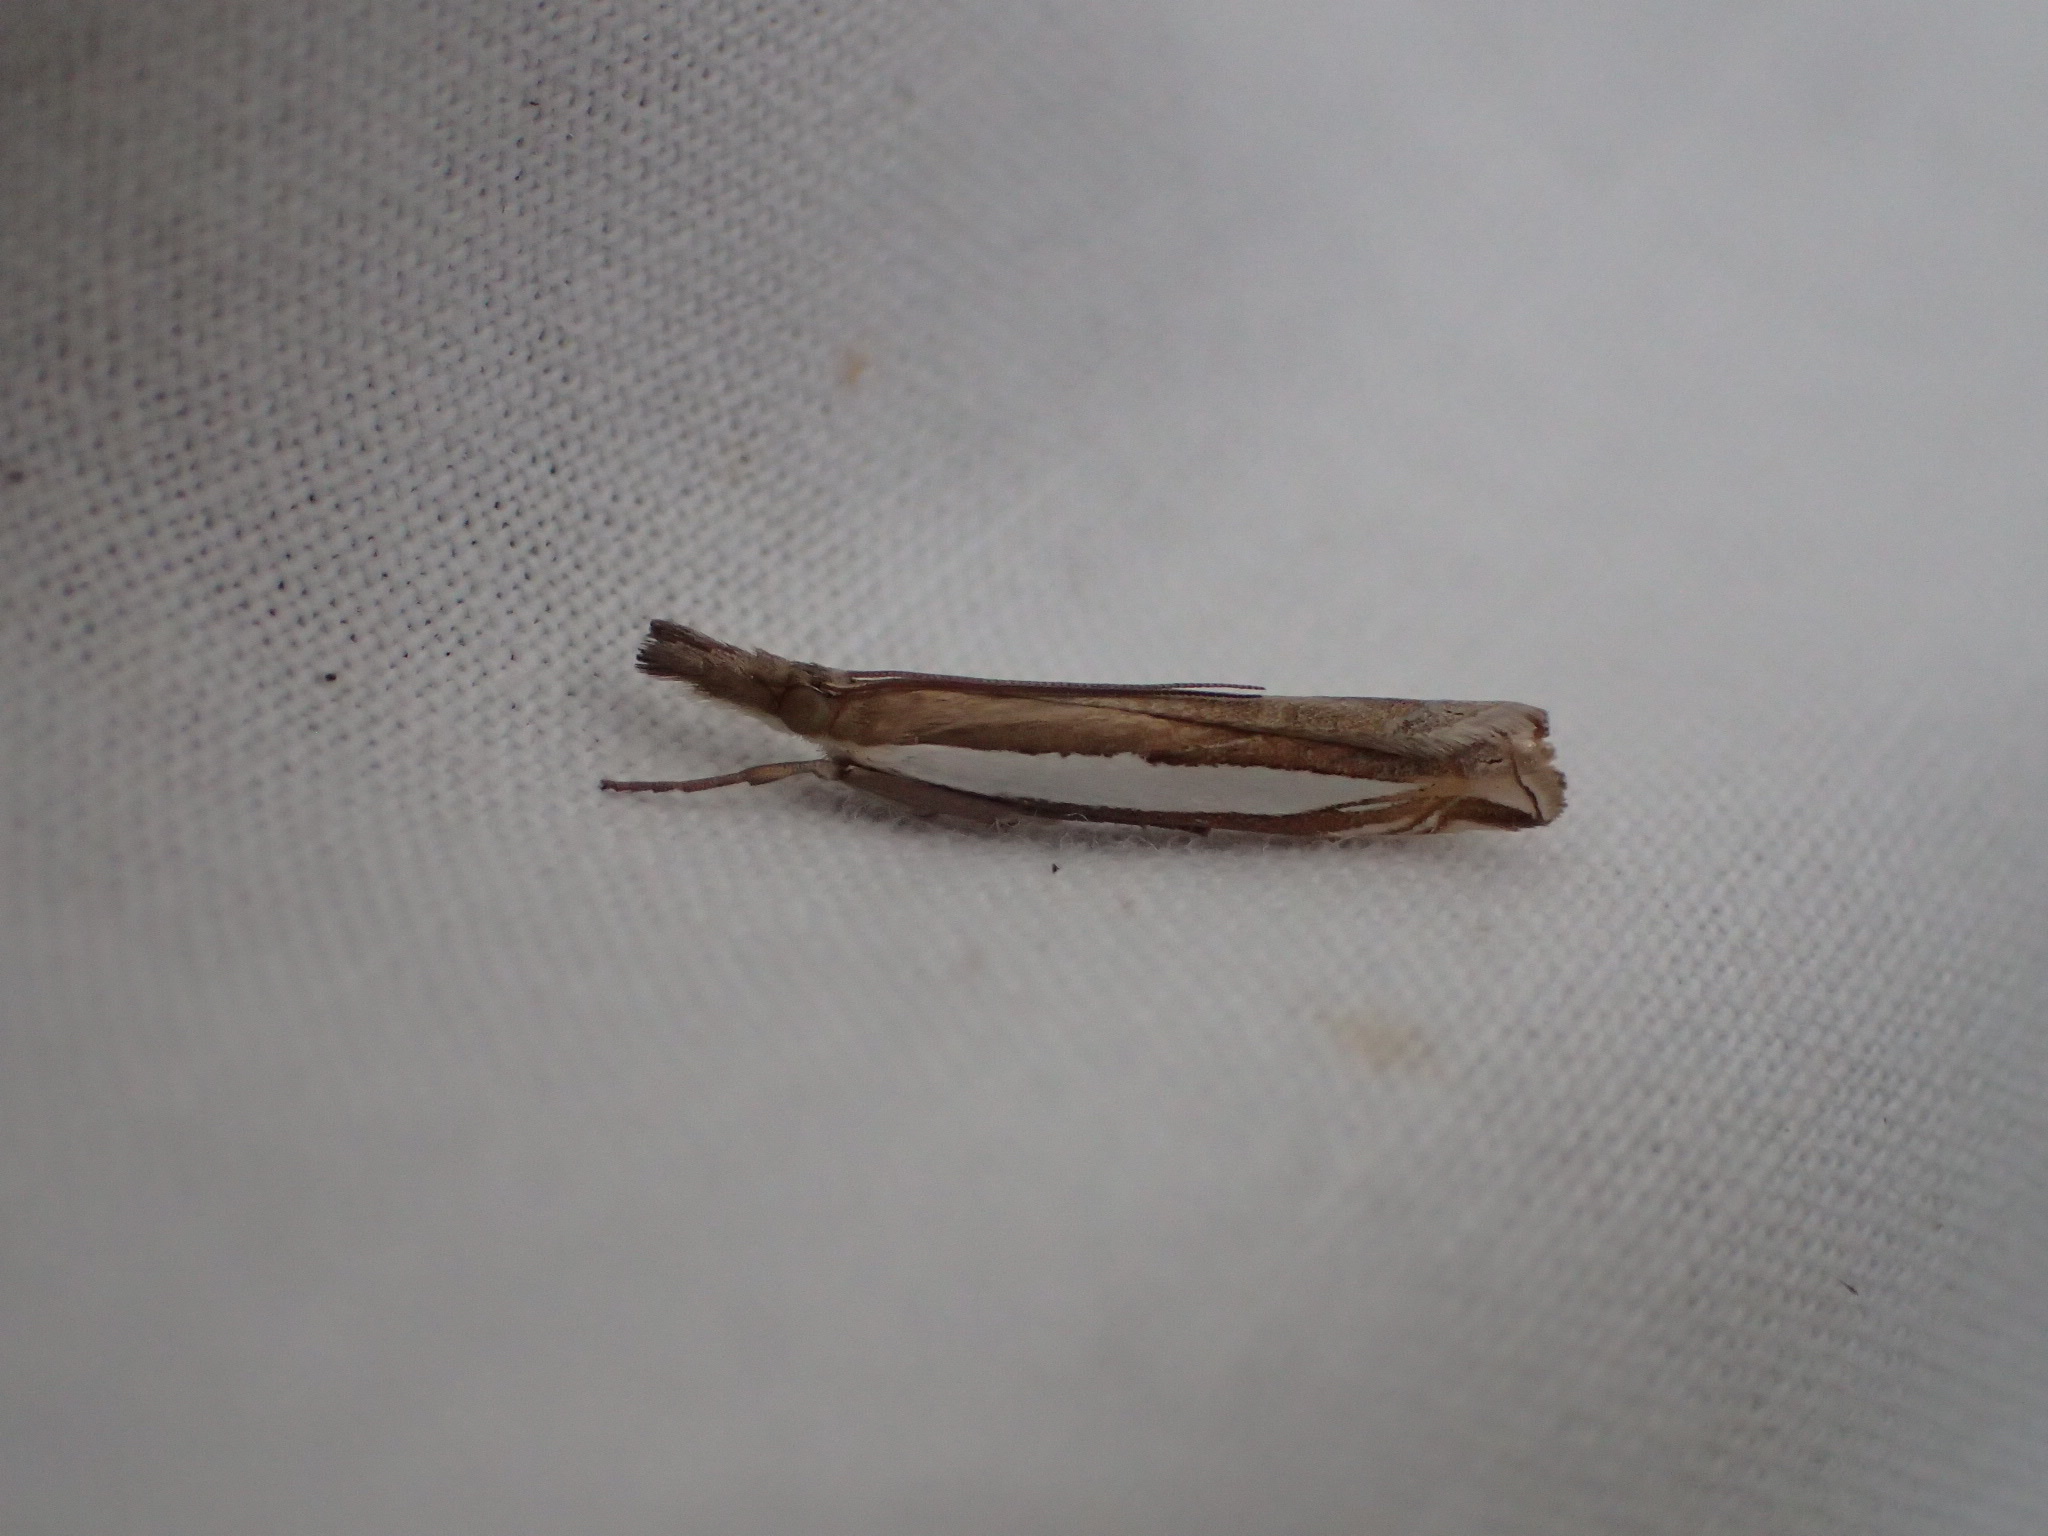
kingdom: Animalia
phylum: Arthropoda
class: Insecta
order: Lepidoptera
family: Crambidae
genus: Crambus
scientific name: Crambus leachellus
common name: Leach's grass-veneer
